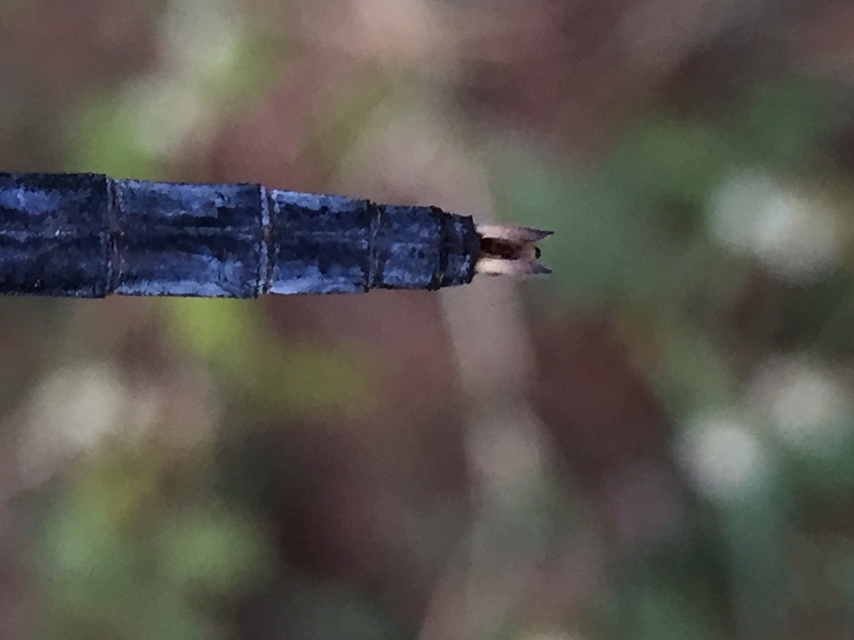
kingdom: Animalia
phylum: Arthropoda
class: Insecta
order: Odonata
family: Libellulidae
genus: Indothemis
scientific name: Indothemis carnatica
